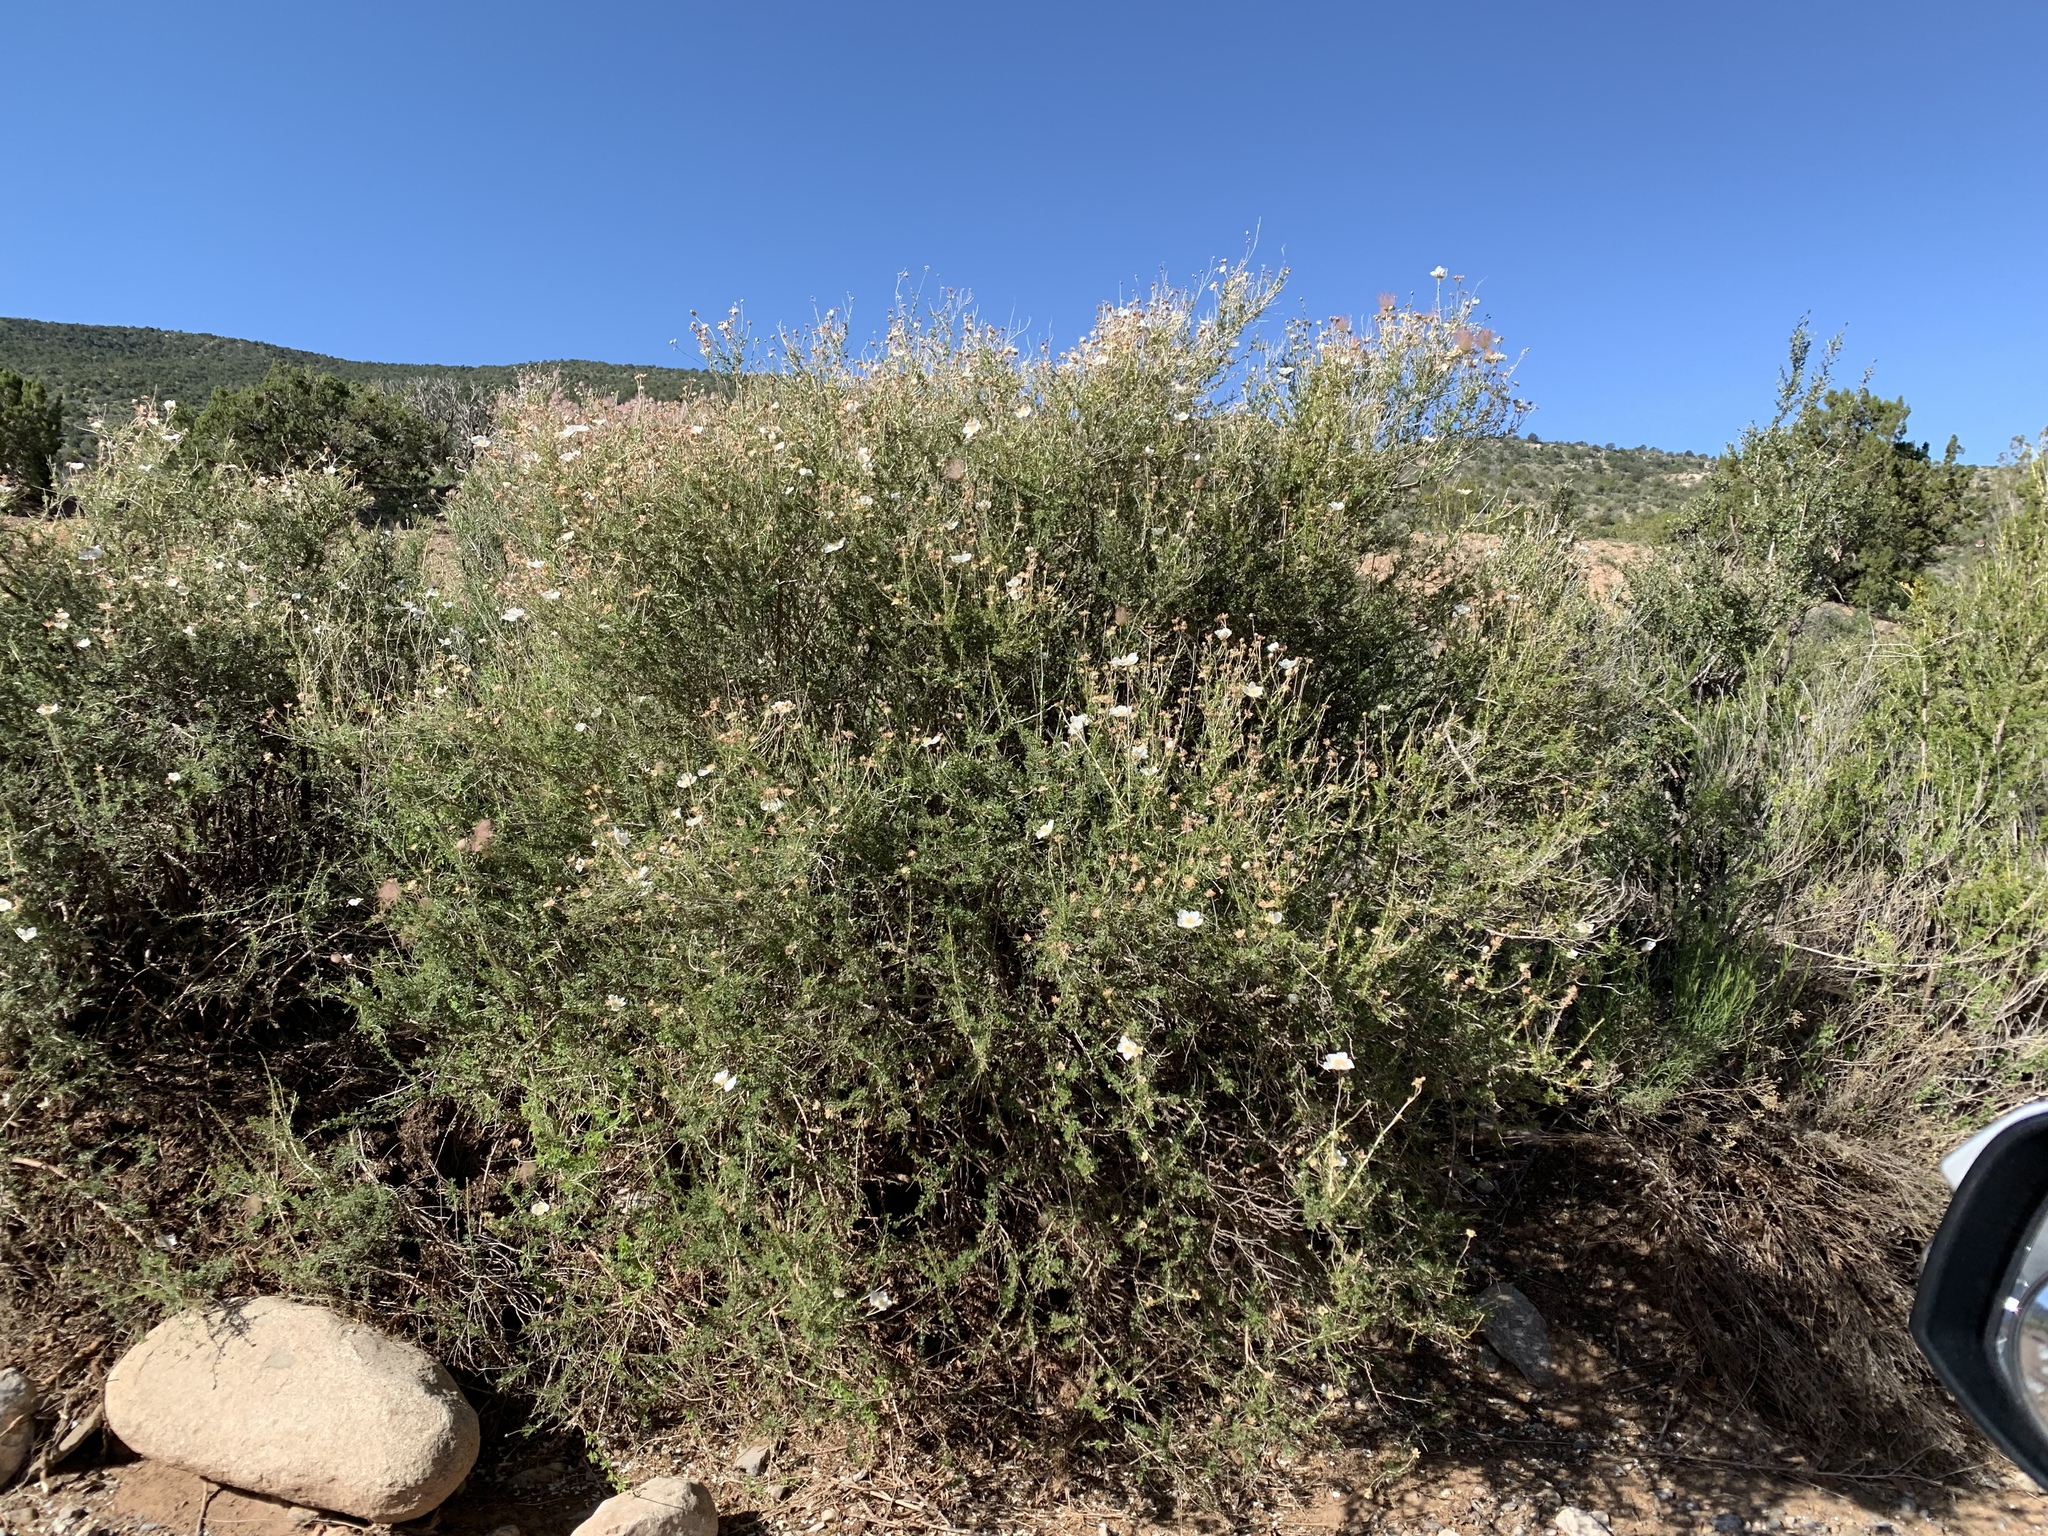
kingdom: Plantae
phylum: Tracheophyta
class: Magnoliopsida
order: Rosales
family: Rosaceae
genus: Fallugia
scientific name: Fallugia paradoxa
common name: Apache-plume
